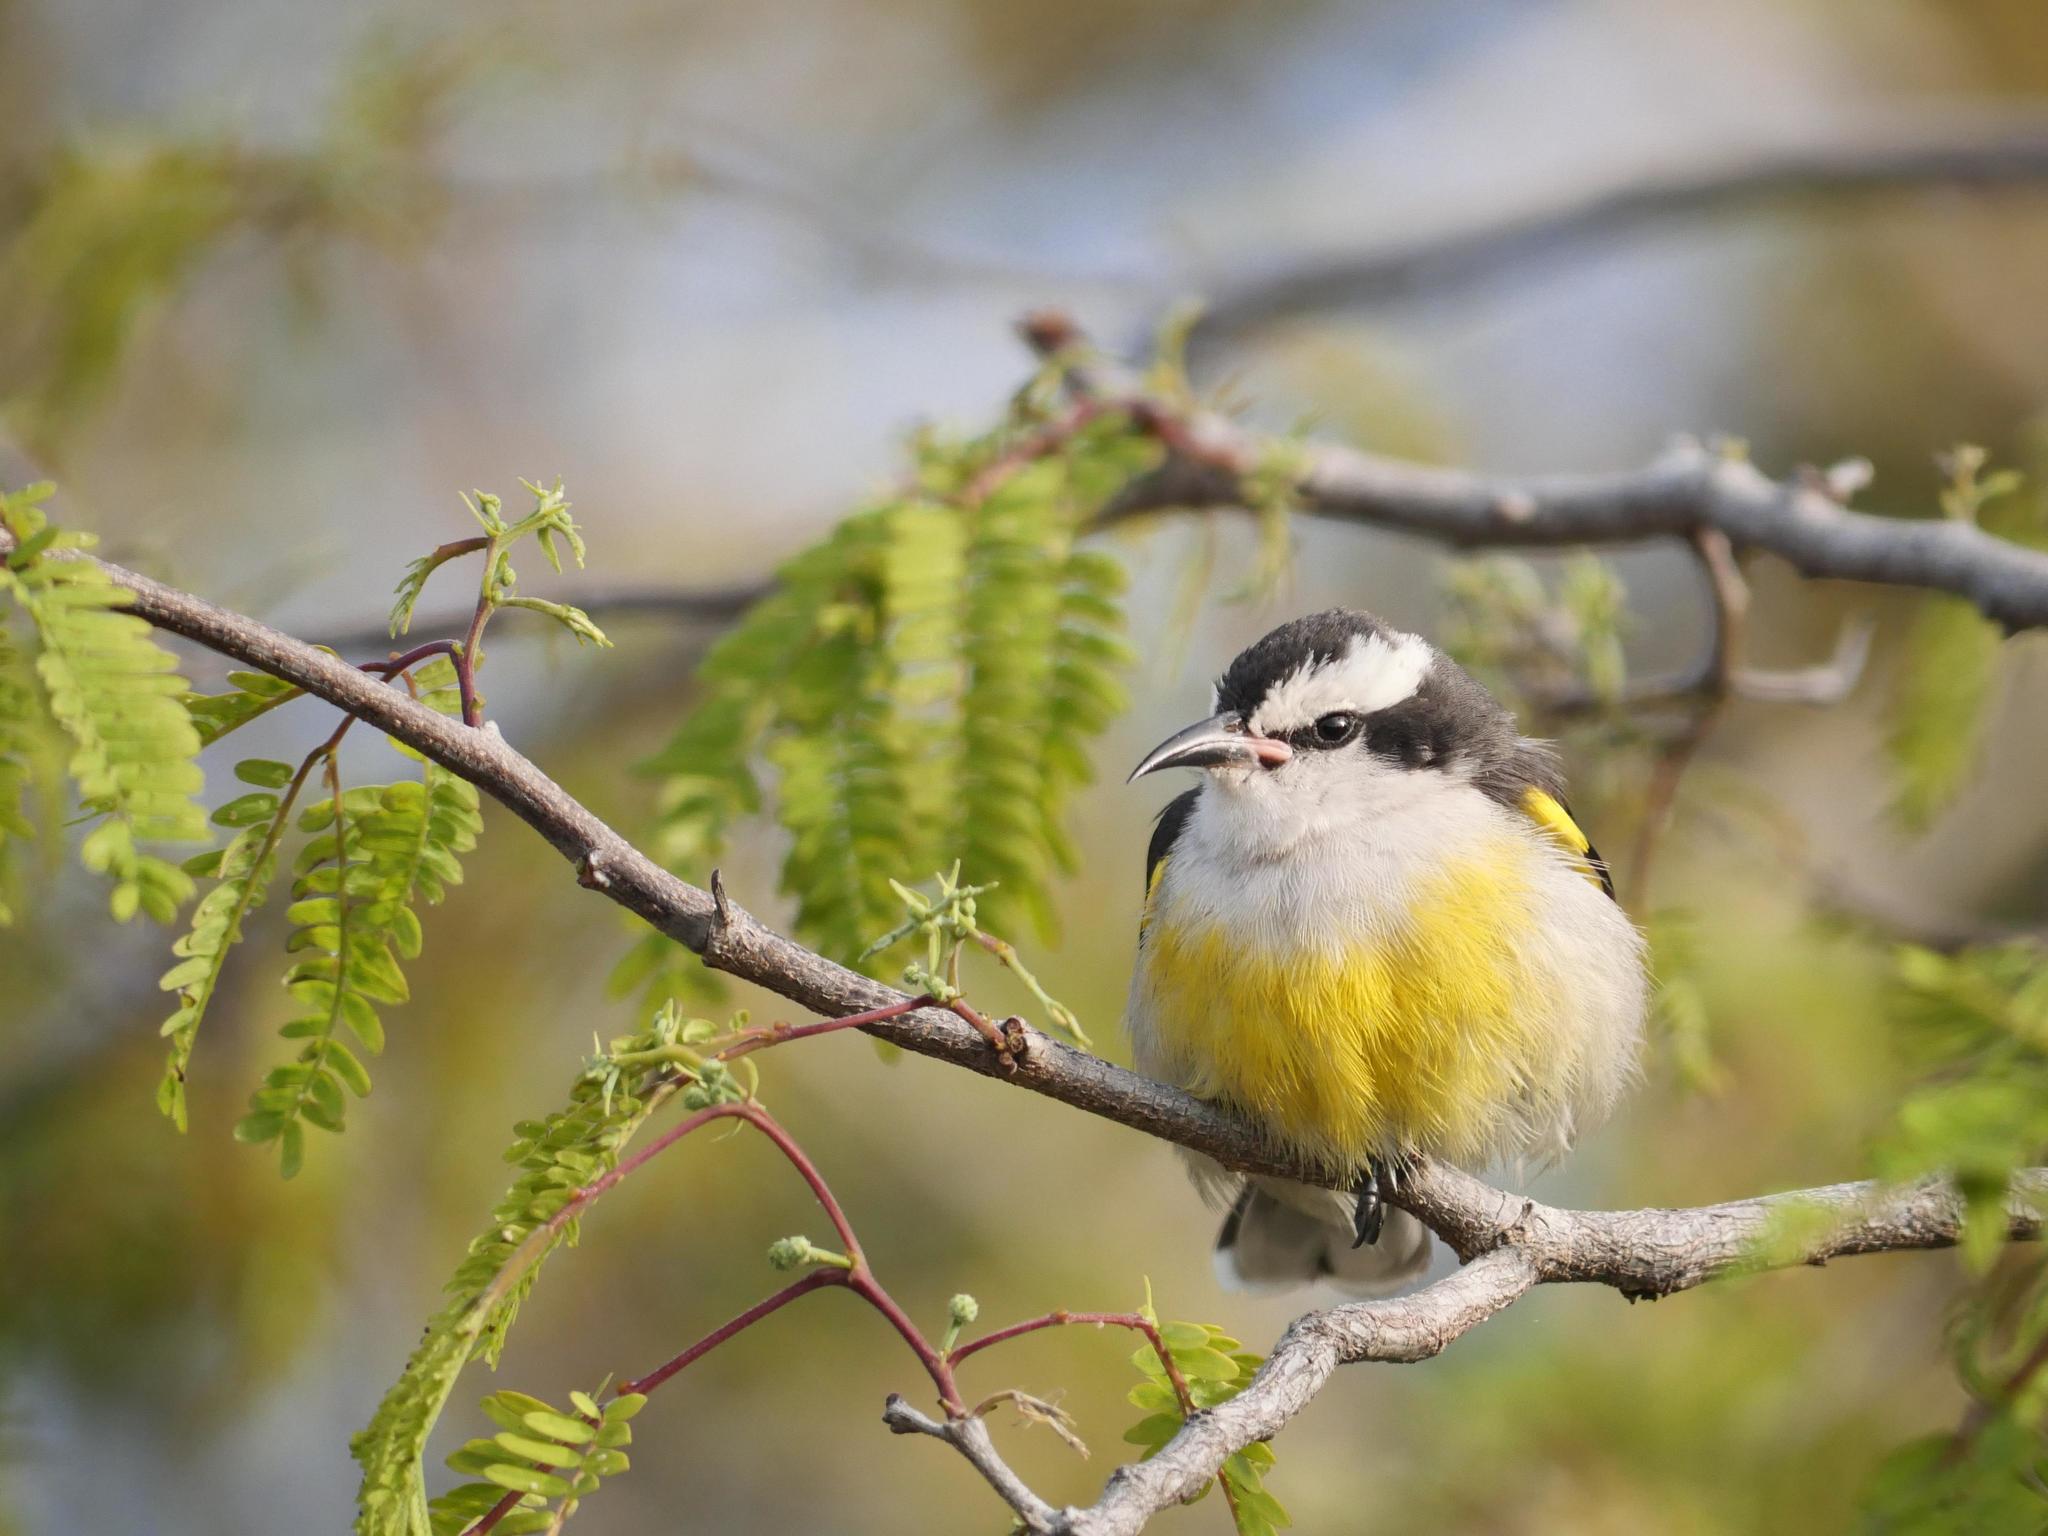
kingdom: Animalia
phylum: Chordata
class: Aves
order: Passeriformes
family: Thraupidae
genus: Coereba
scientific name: Coereba flaveola
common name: Bananaquit
